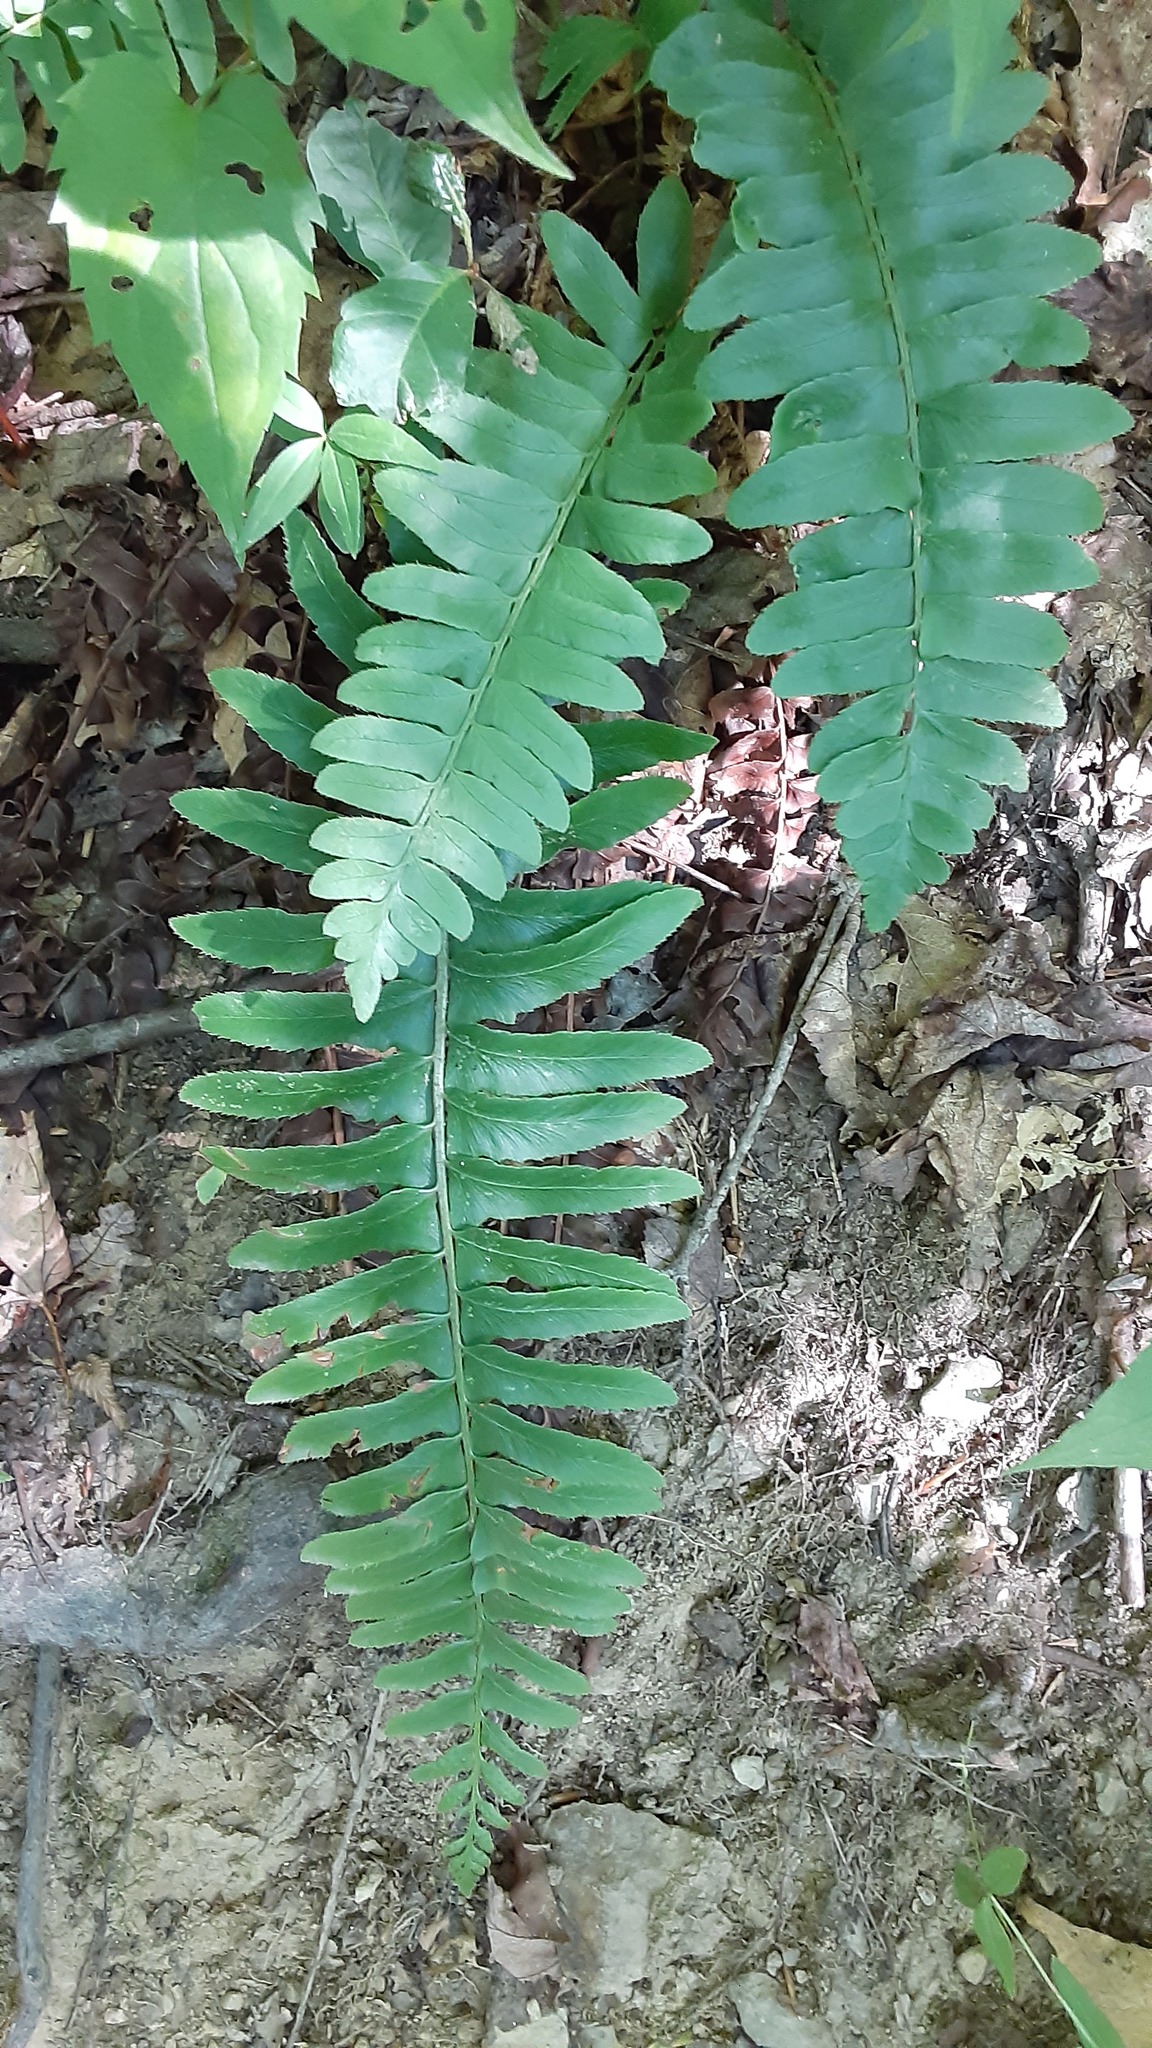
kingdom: Plantae
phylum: Tracheophyta
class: Polypodiopsida
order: Polypodiales
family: Dryopteridaceae
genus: Polystichum
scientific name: Polystichum acrostichoides
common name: Christmas fern
